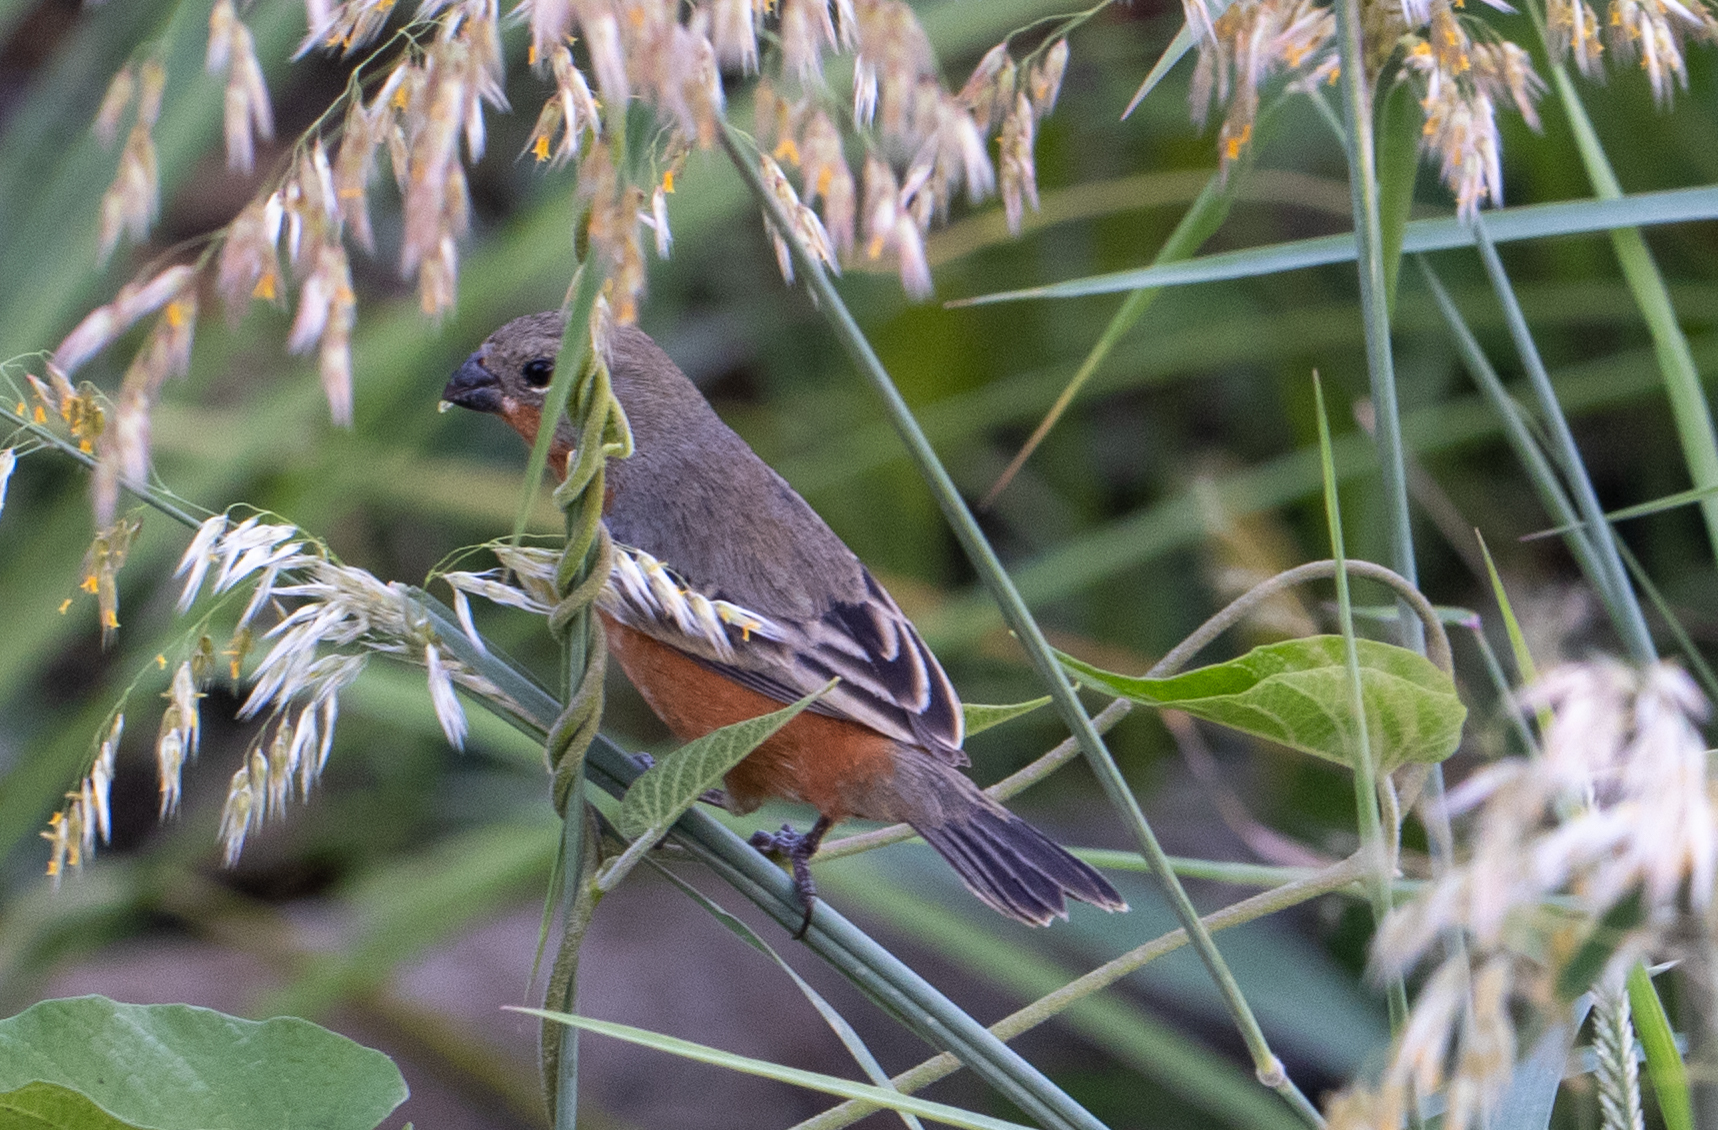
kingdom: Animalia
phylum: Chordata
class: Aves
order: Passeriformes
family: Thraupidae
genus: Sporophila
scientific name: Sporophila minuta
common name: Ruddy-breasted seedeater
